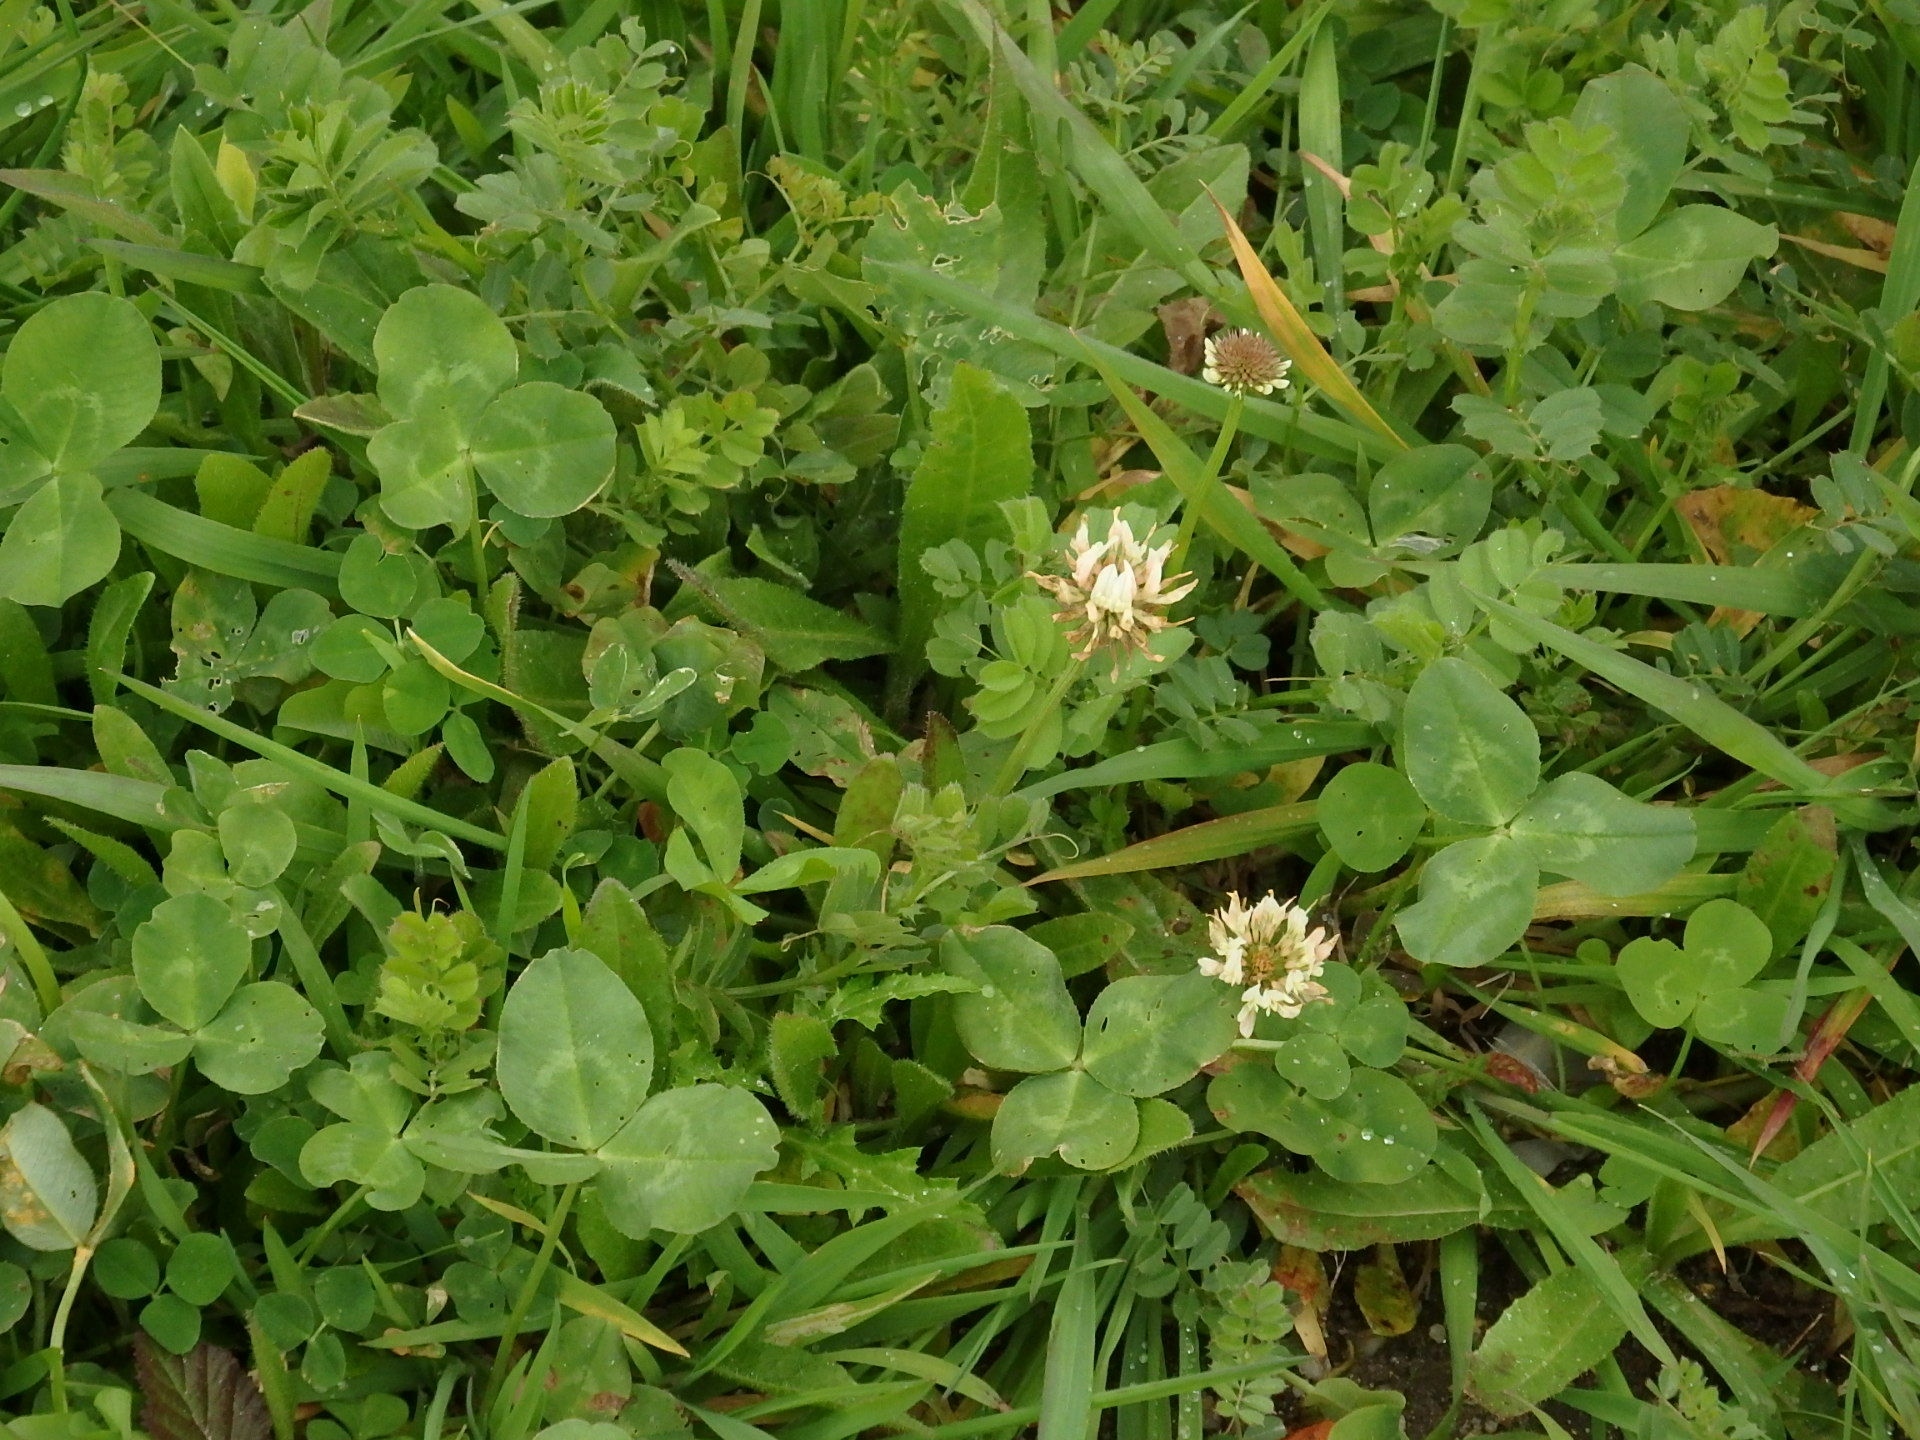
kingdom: Plantae
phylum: Tracheophyta
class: Magnoliopsida
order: Fabales
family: Fabaceae
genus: Trifolium
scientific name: Trifolium repens
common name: White clover
